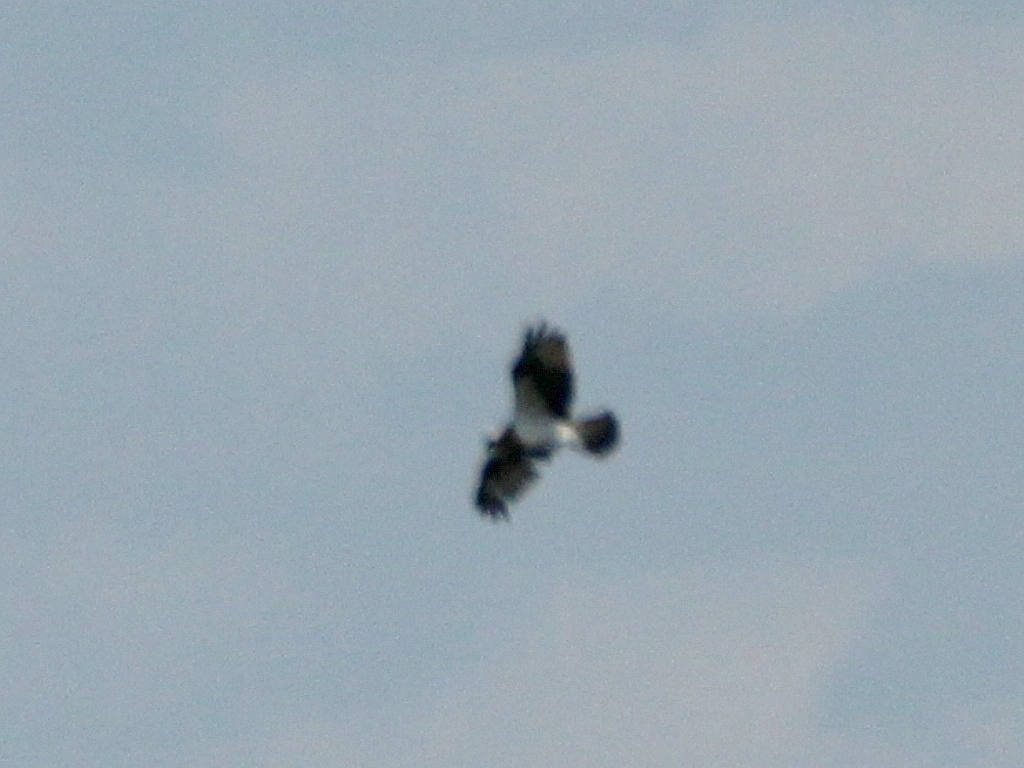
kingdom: Animalia
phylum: Chordata
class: Aves
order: Accipitriformes
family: Pandionidae
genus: Pandion
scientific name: Pandion haliaetus
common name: Osprey
